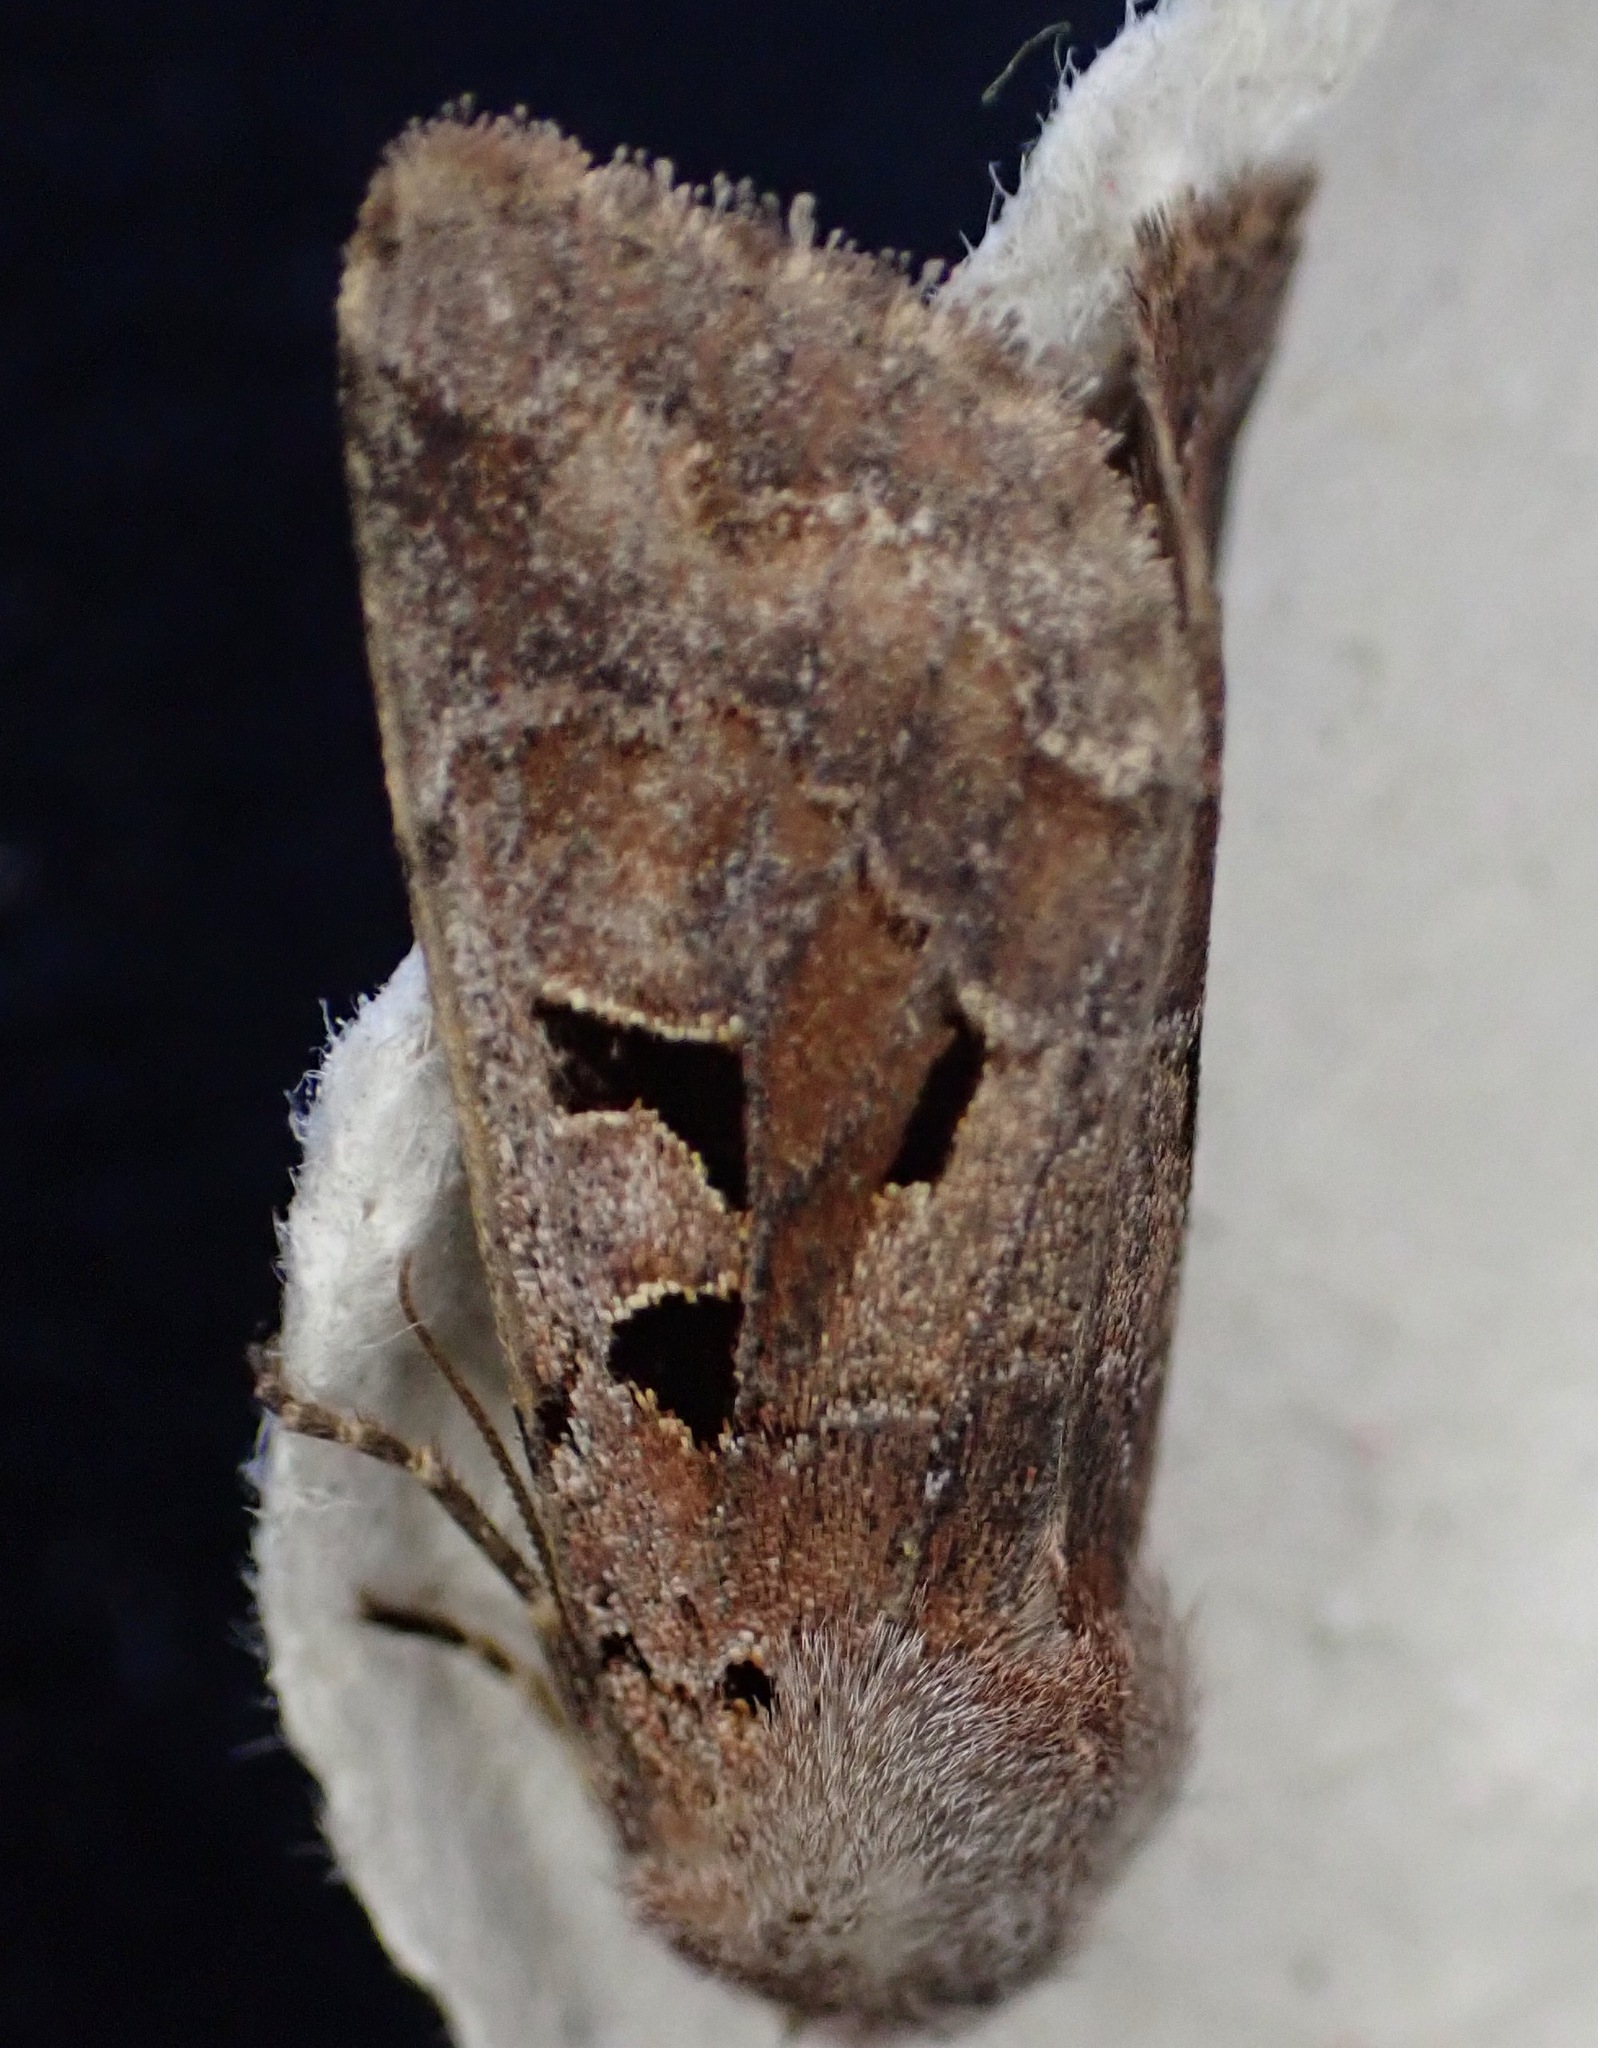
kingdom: Animalia
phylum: Arthropoda
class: Insecta
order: Lepidoptera
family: Noctuidae
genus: Orthosia
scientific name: Orthosia gothica
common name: Hebrew character
